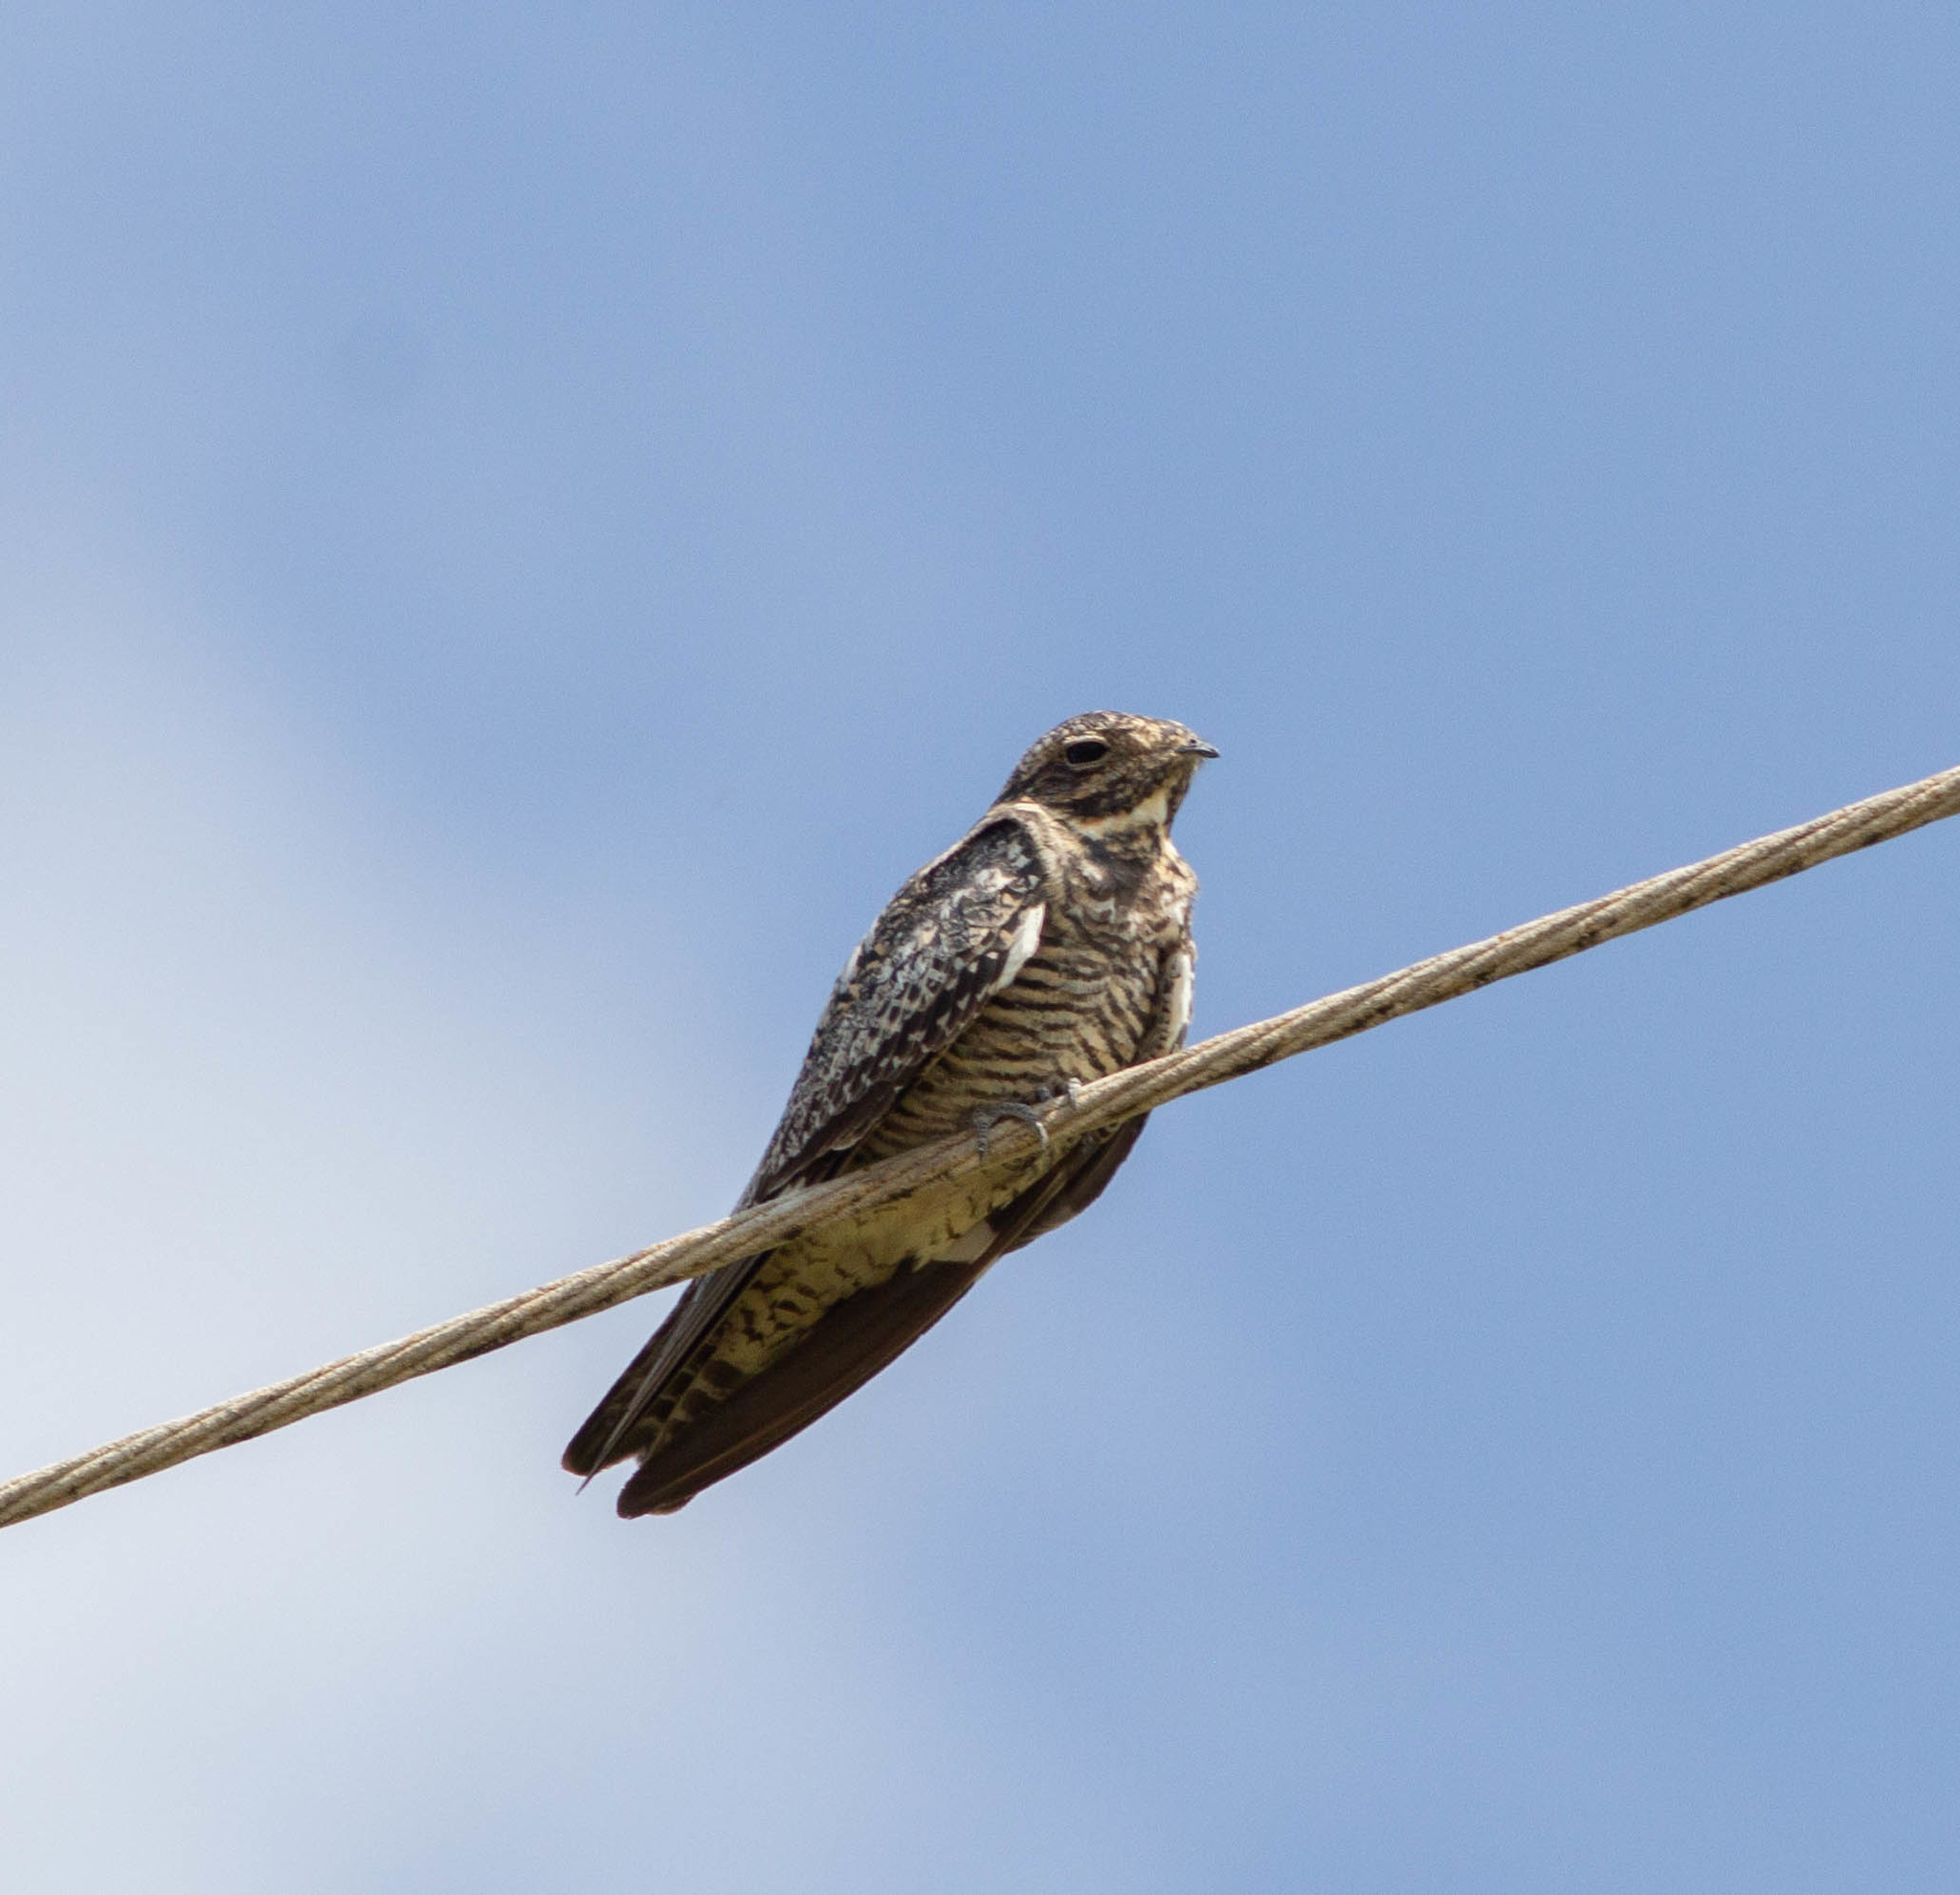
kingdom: Animalia
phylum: Chordata
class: Aves
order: Caprimulgiformes
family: Caprimulgidae
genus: Chordeiles
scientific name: Chordeiles minor
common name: Common nighthawk
